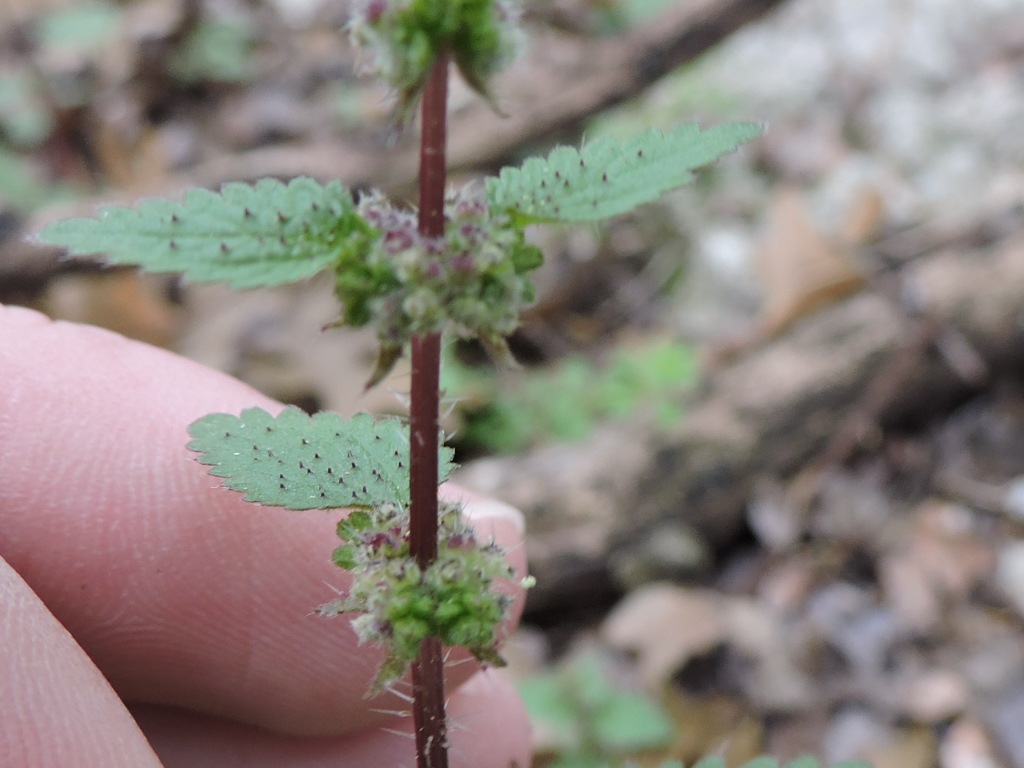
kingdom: Plantae
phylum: Tracheophyta
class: Magnoliopsida
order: Rosales
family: Urticaceae
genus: Urtica
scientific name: Urtica chamaedryoides
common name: Heart-leaf nettle
